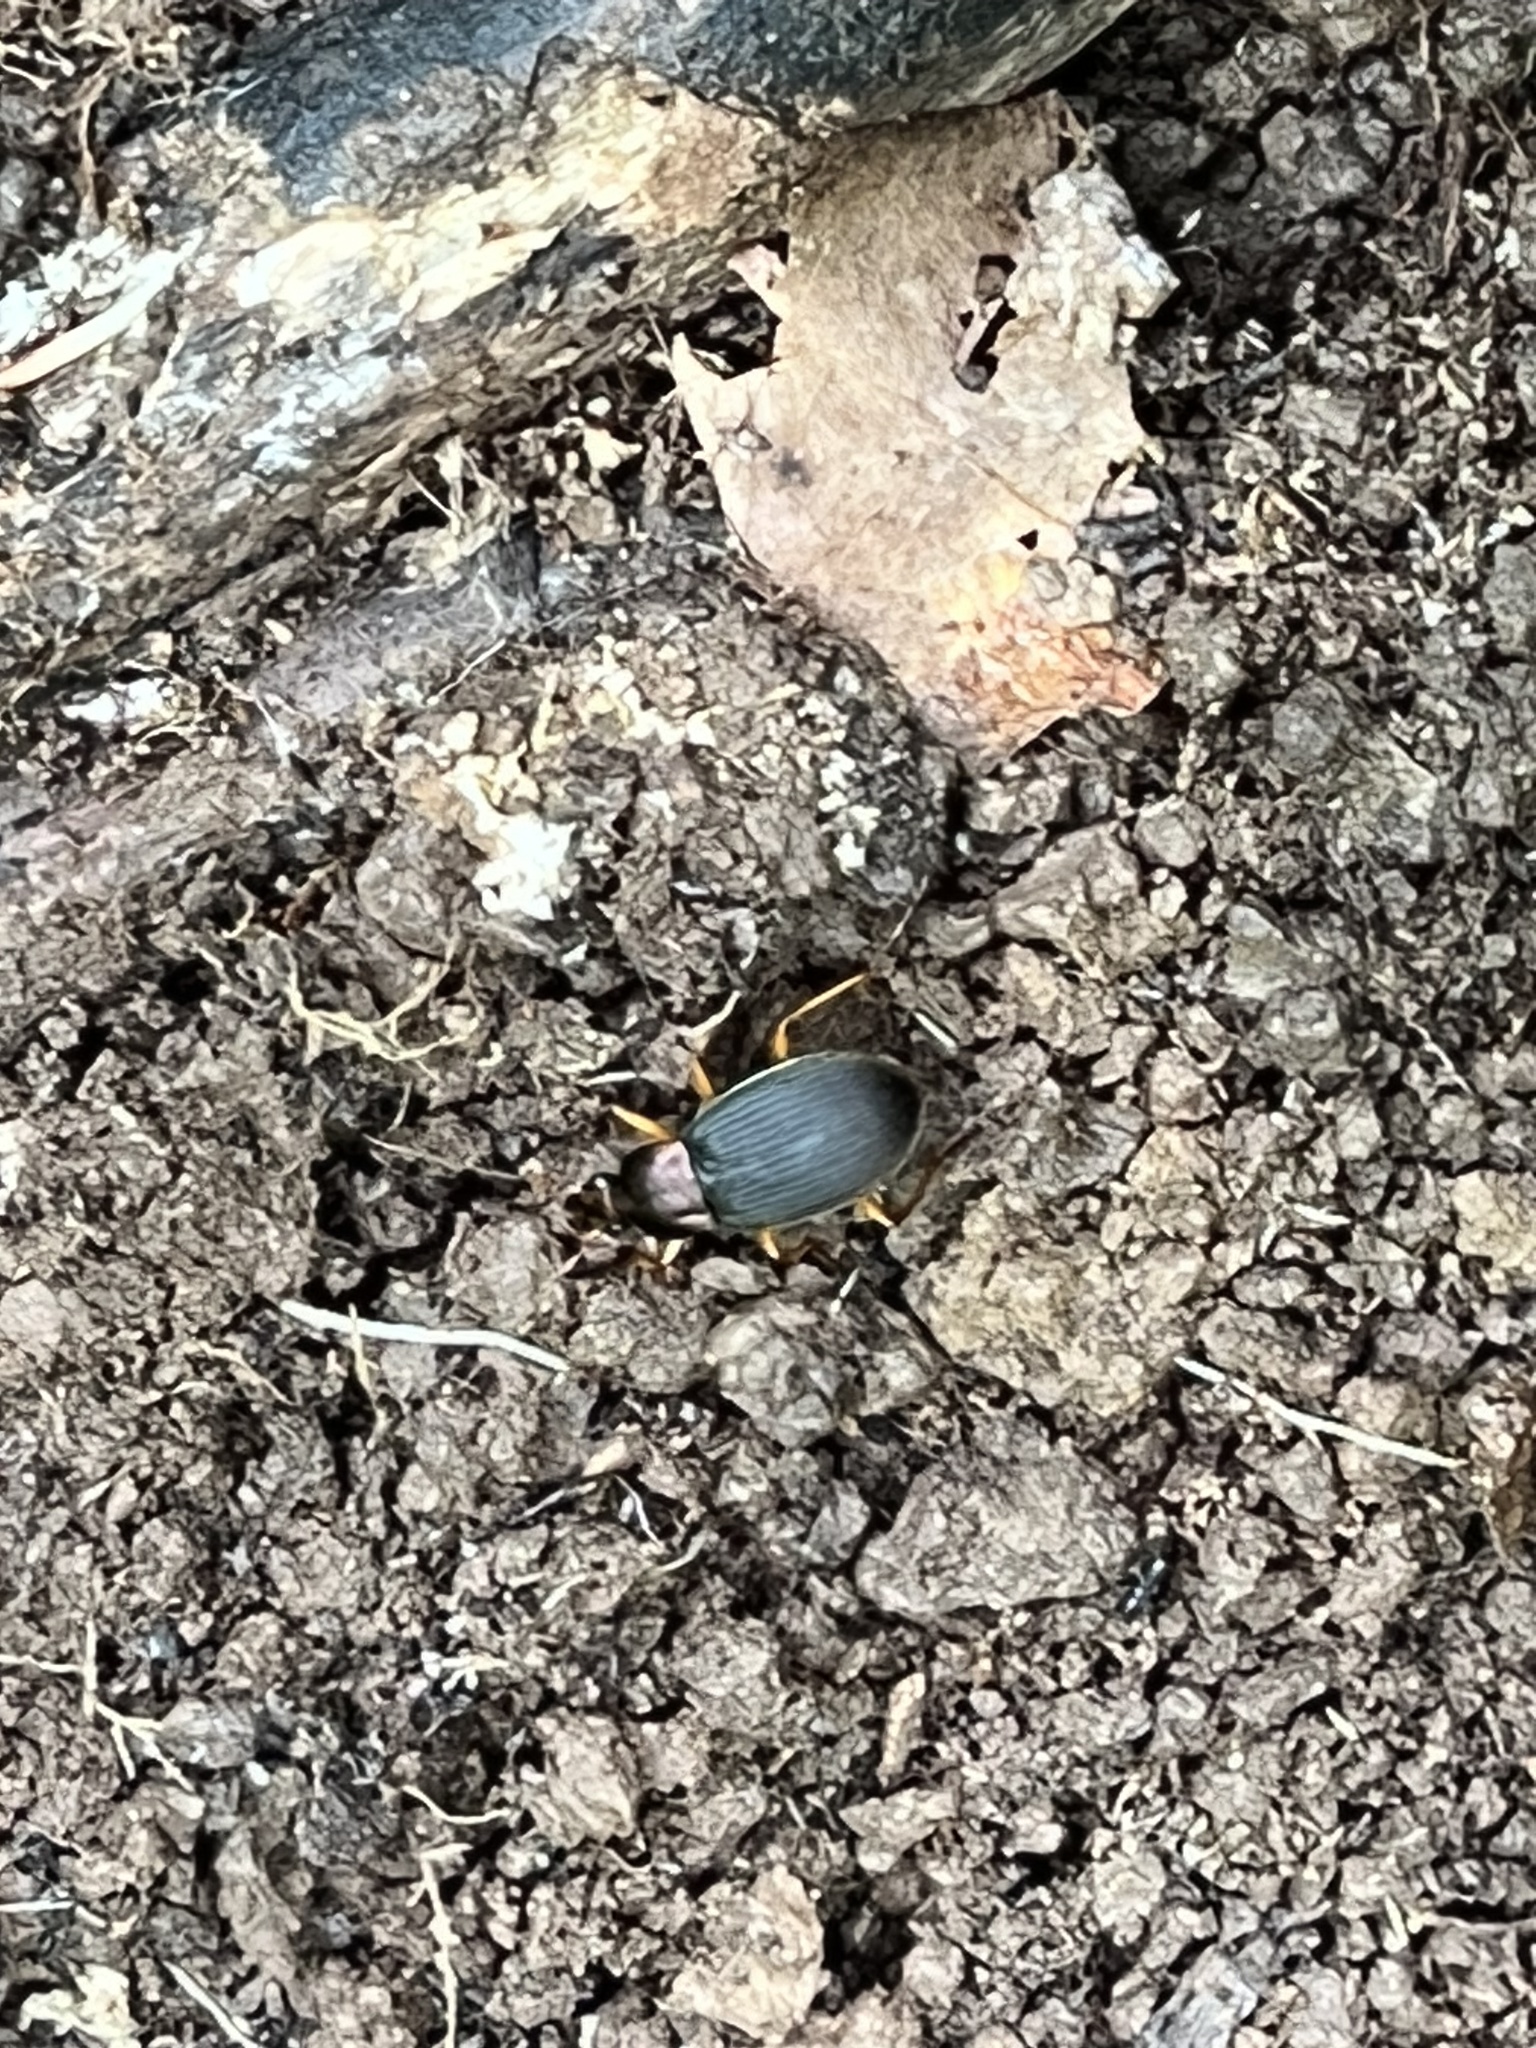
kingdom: Animalia
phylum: Arthropoda
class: Insecta
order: Coleoptera
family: Carabidae
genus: Chlaenius
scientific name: Chlaenius aestivus
